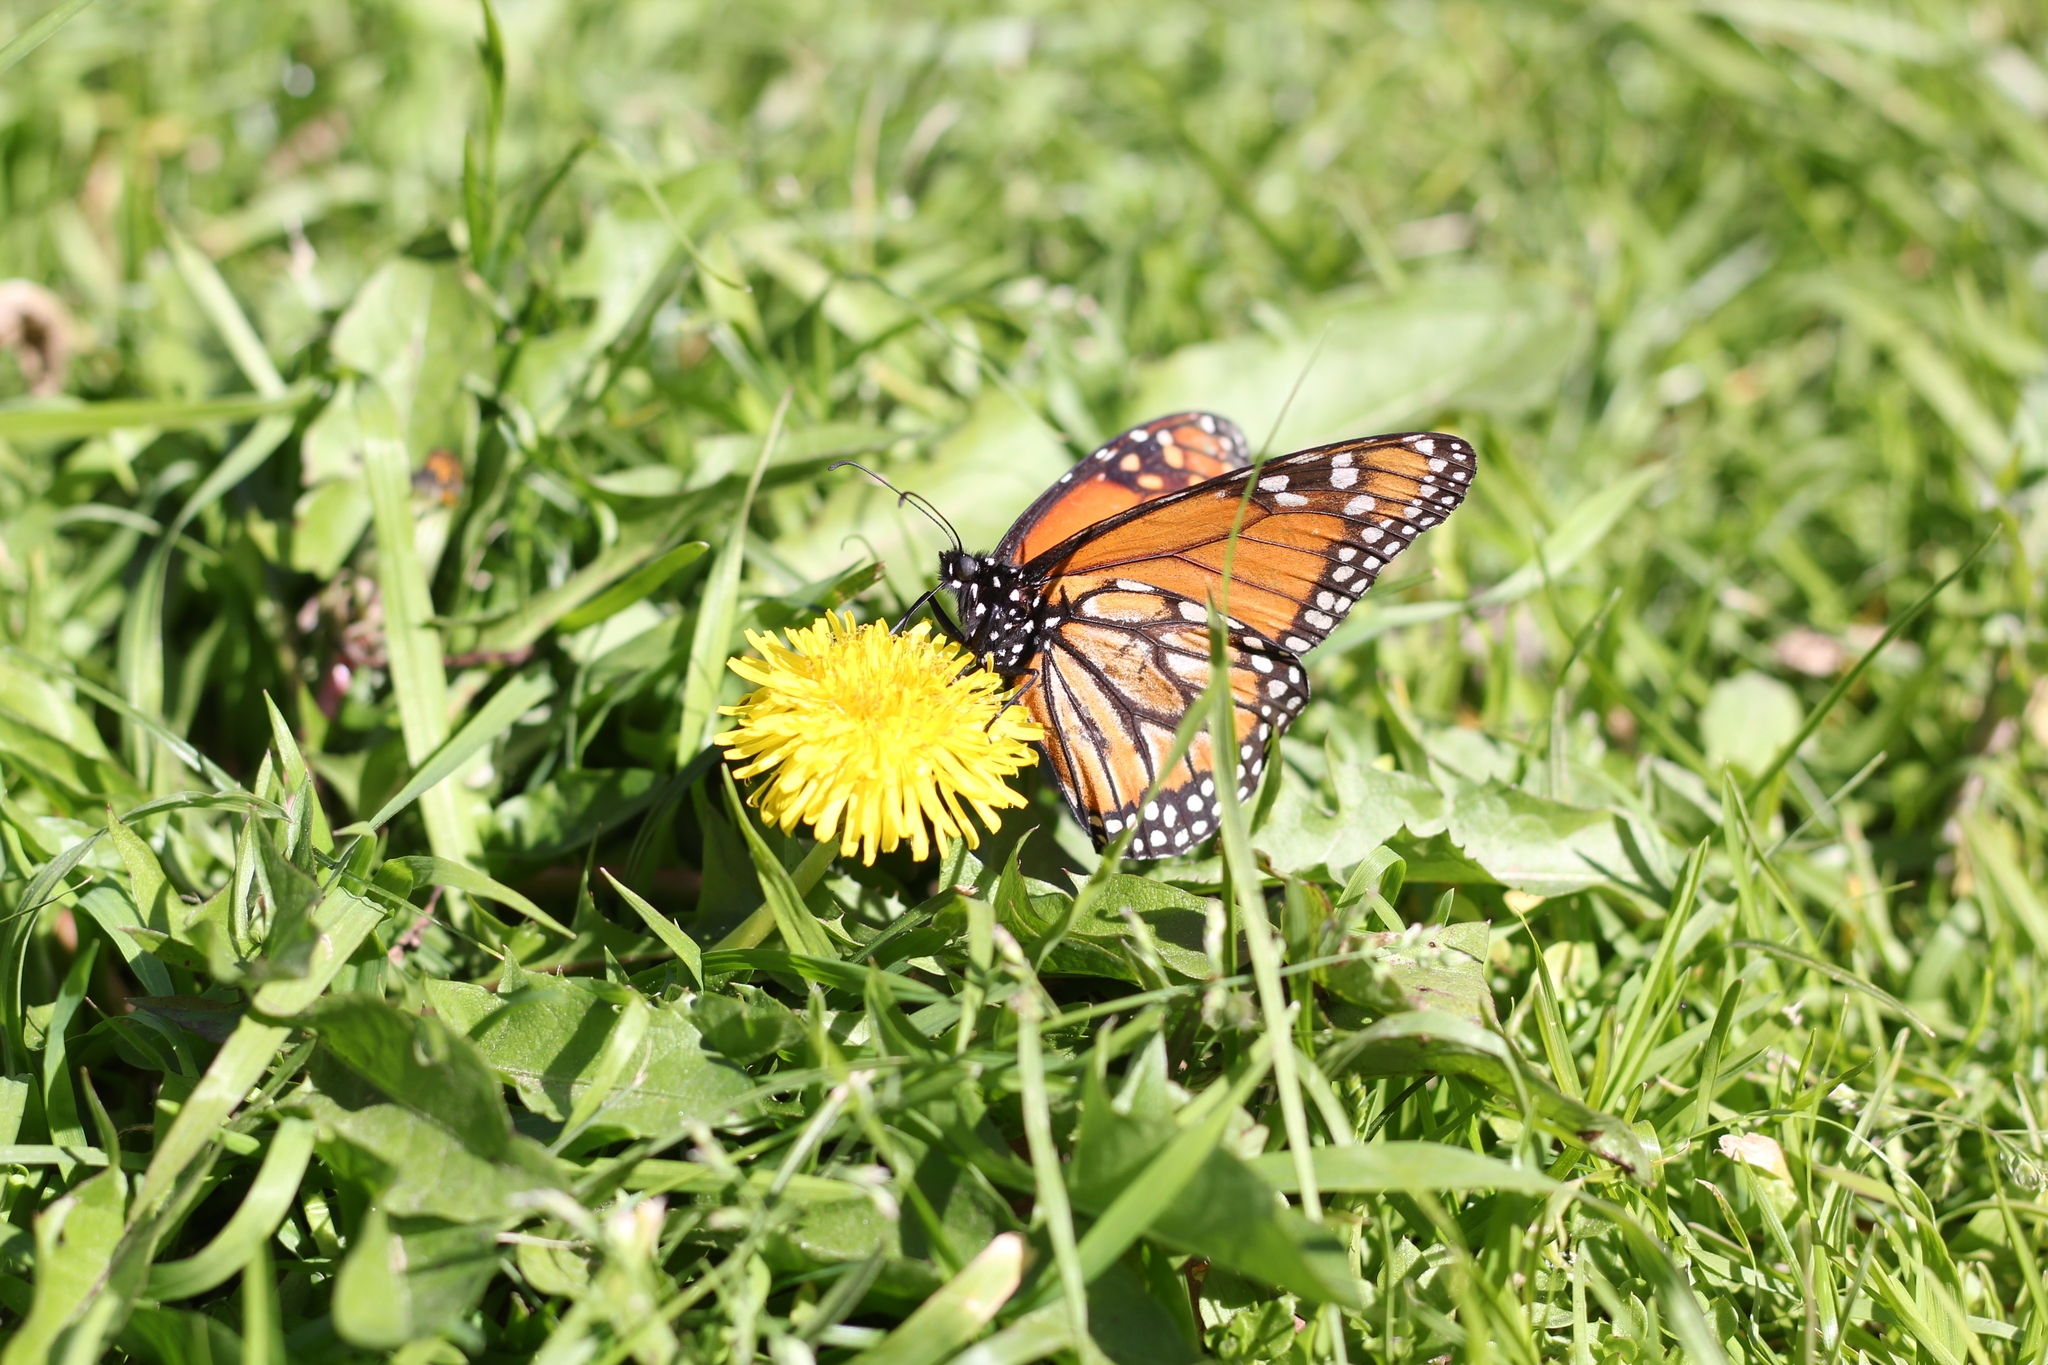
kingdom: Animalia
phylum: Arthropoda
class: Insecta
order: Lepidoptera
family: Nymphalidae
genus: Danaus
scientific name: Danaus erippus
